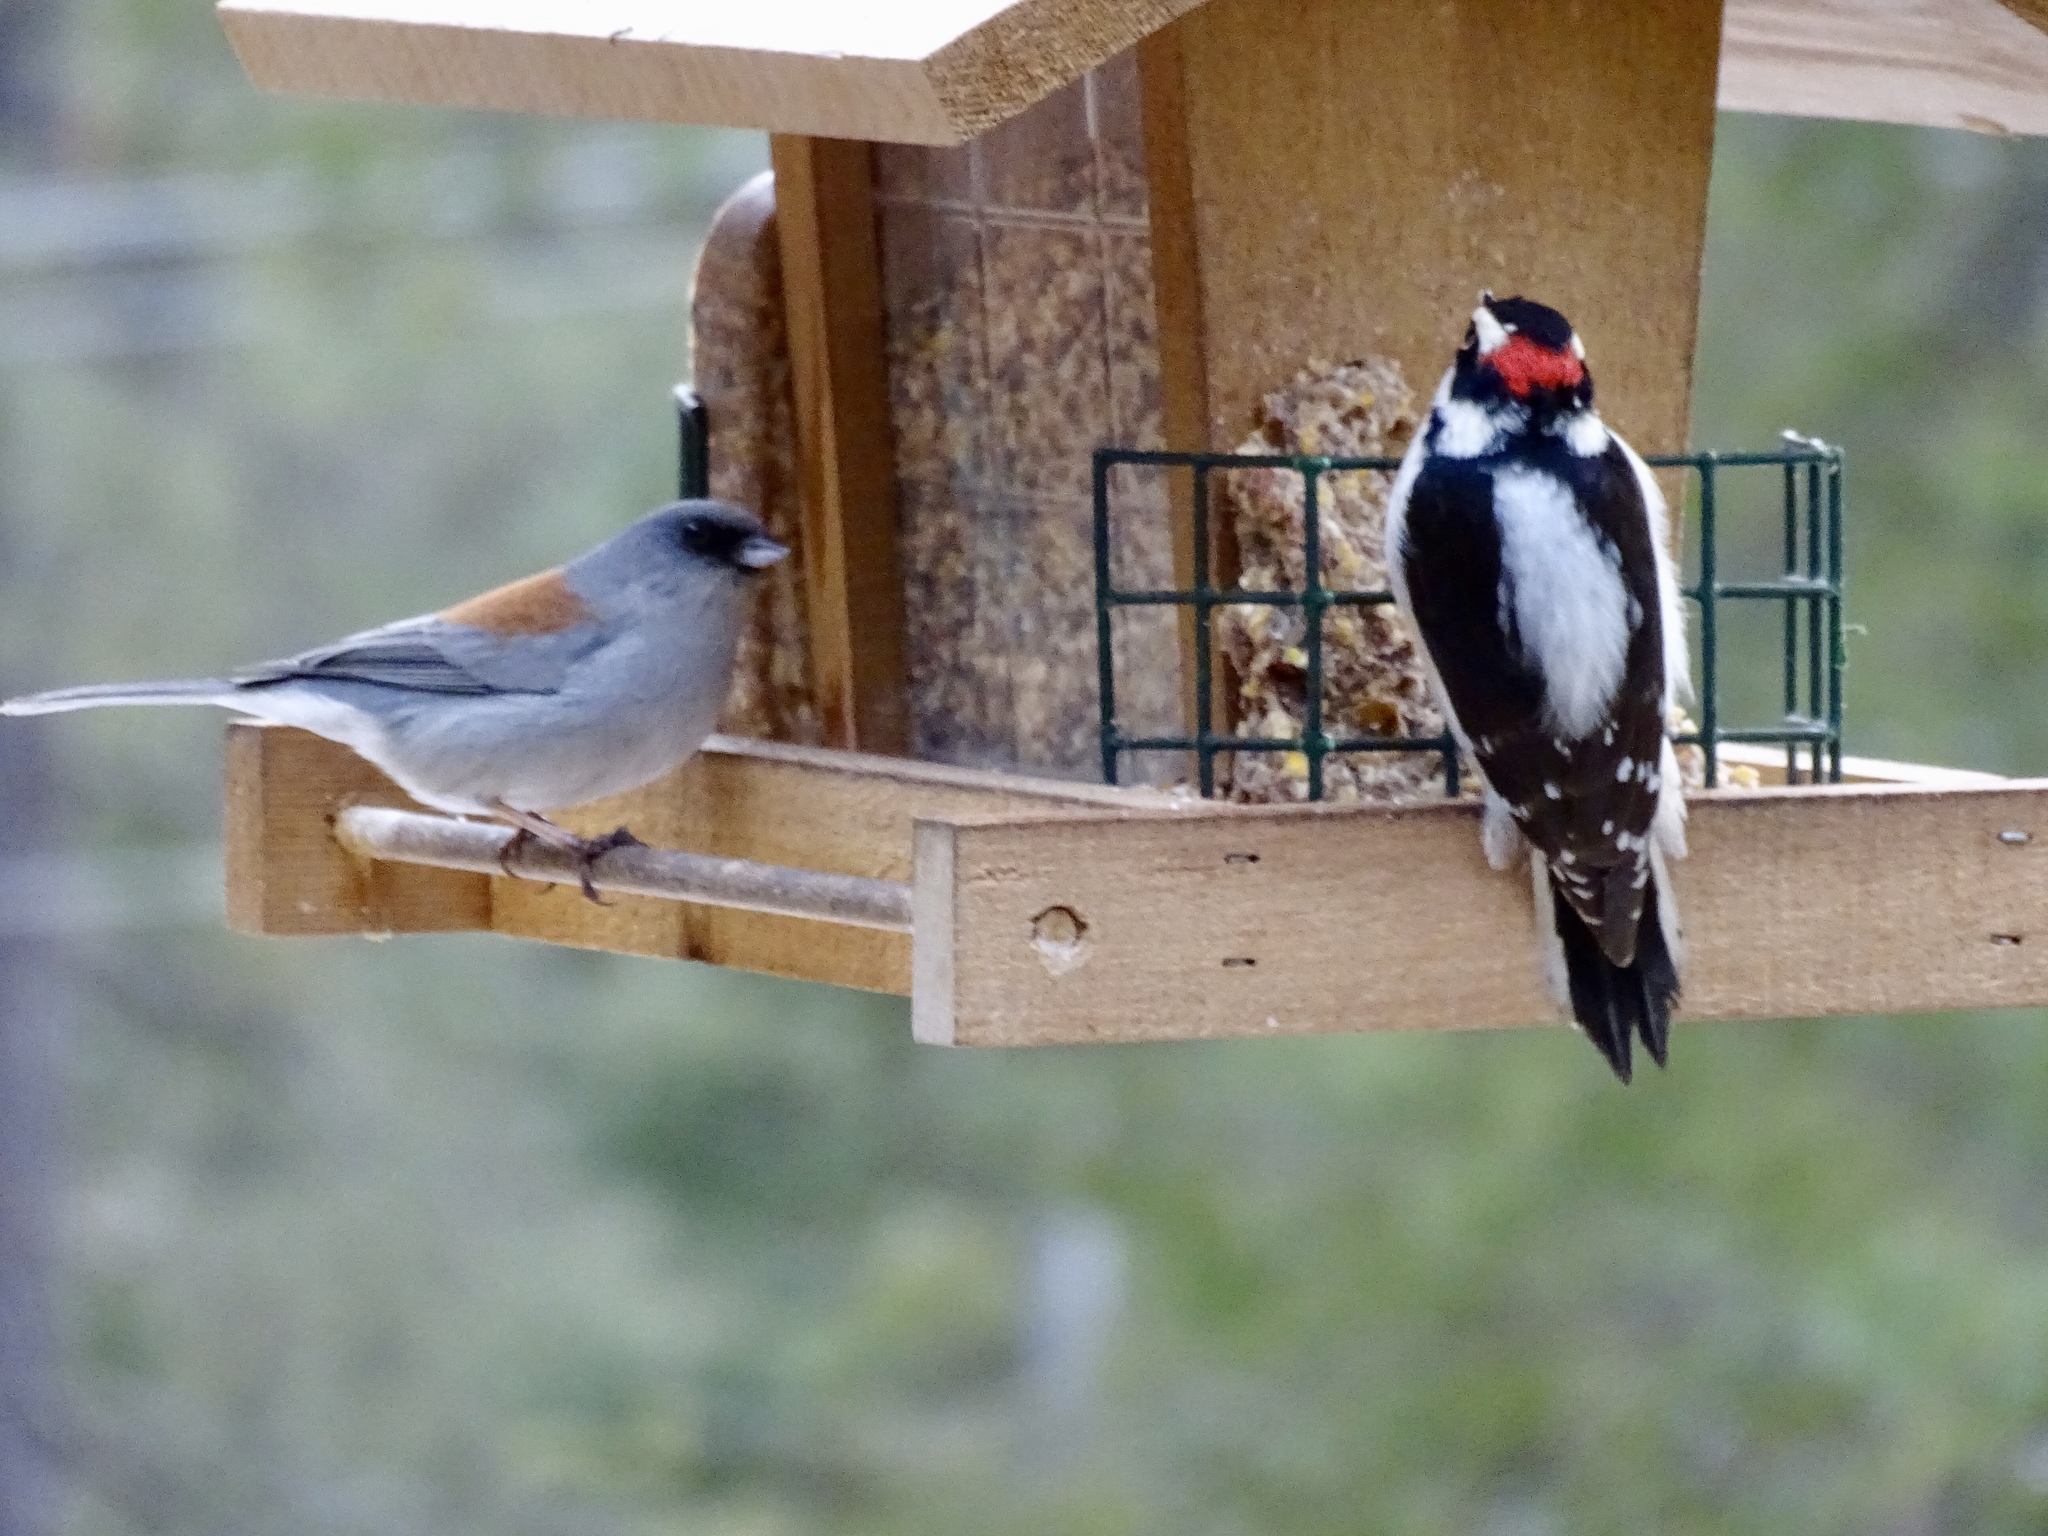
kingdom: Animalia
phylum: Chordata
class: Aves
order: Passeriformes
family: Passerellidae
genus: Junco
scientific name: Junco hyemalis
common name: Dark-eyed junco
